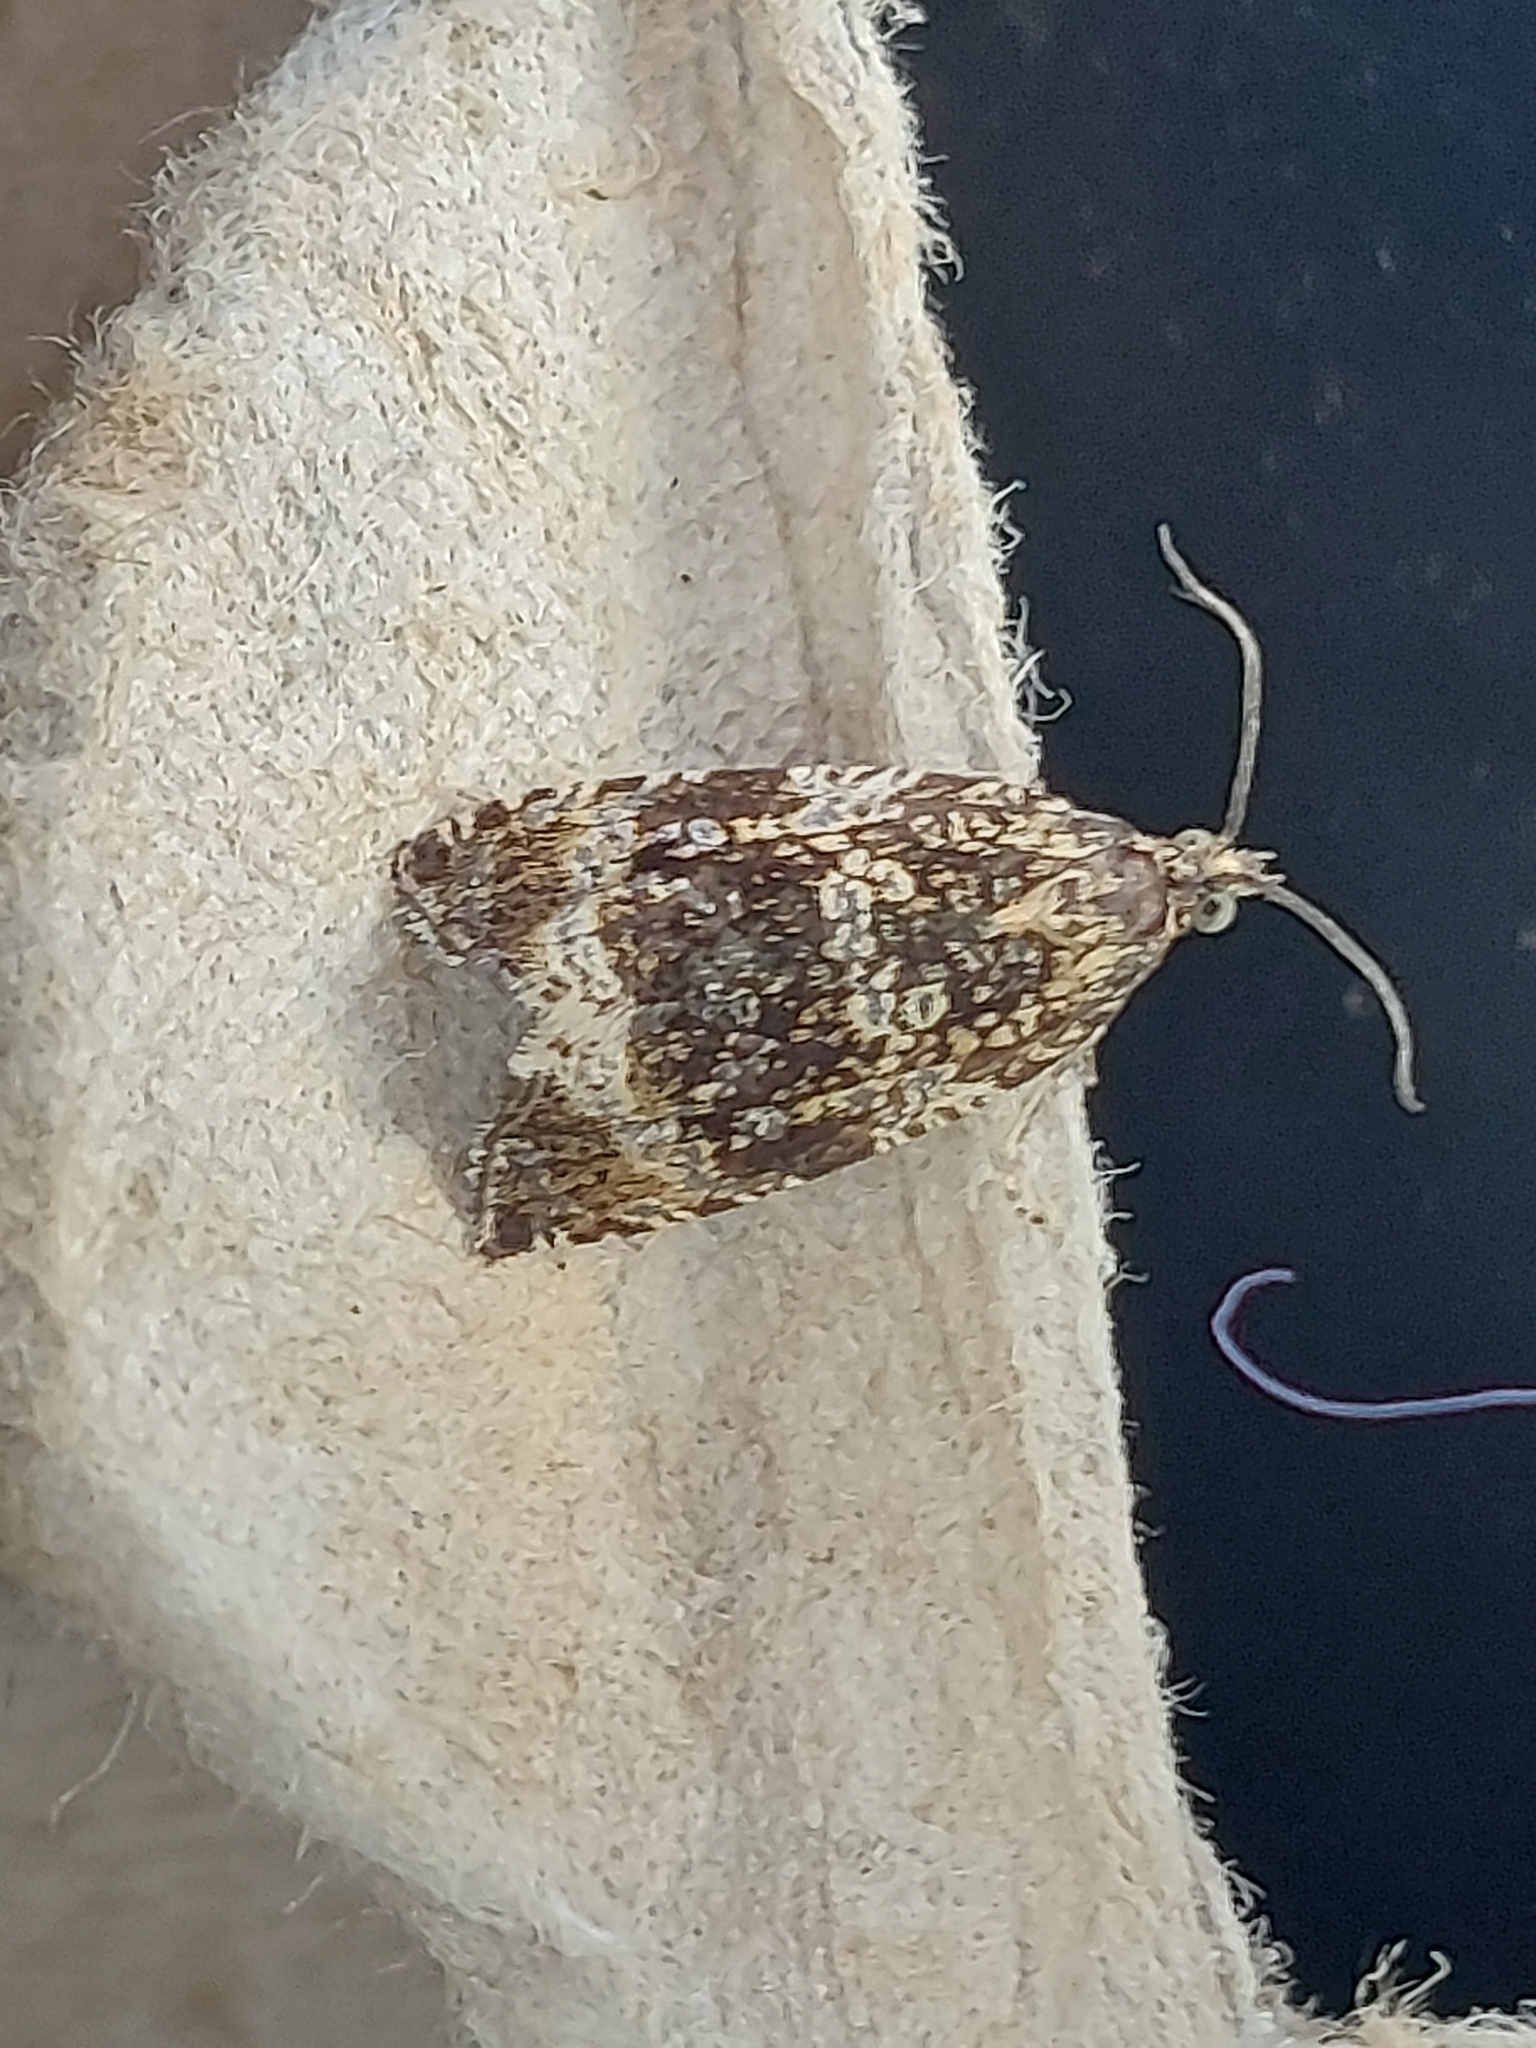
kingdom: Animalia
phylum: Arthropoda
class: Insecta
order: Lepidoptera
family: Tortricidae
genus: Syricoris
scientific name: Syricoris lacunana
